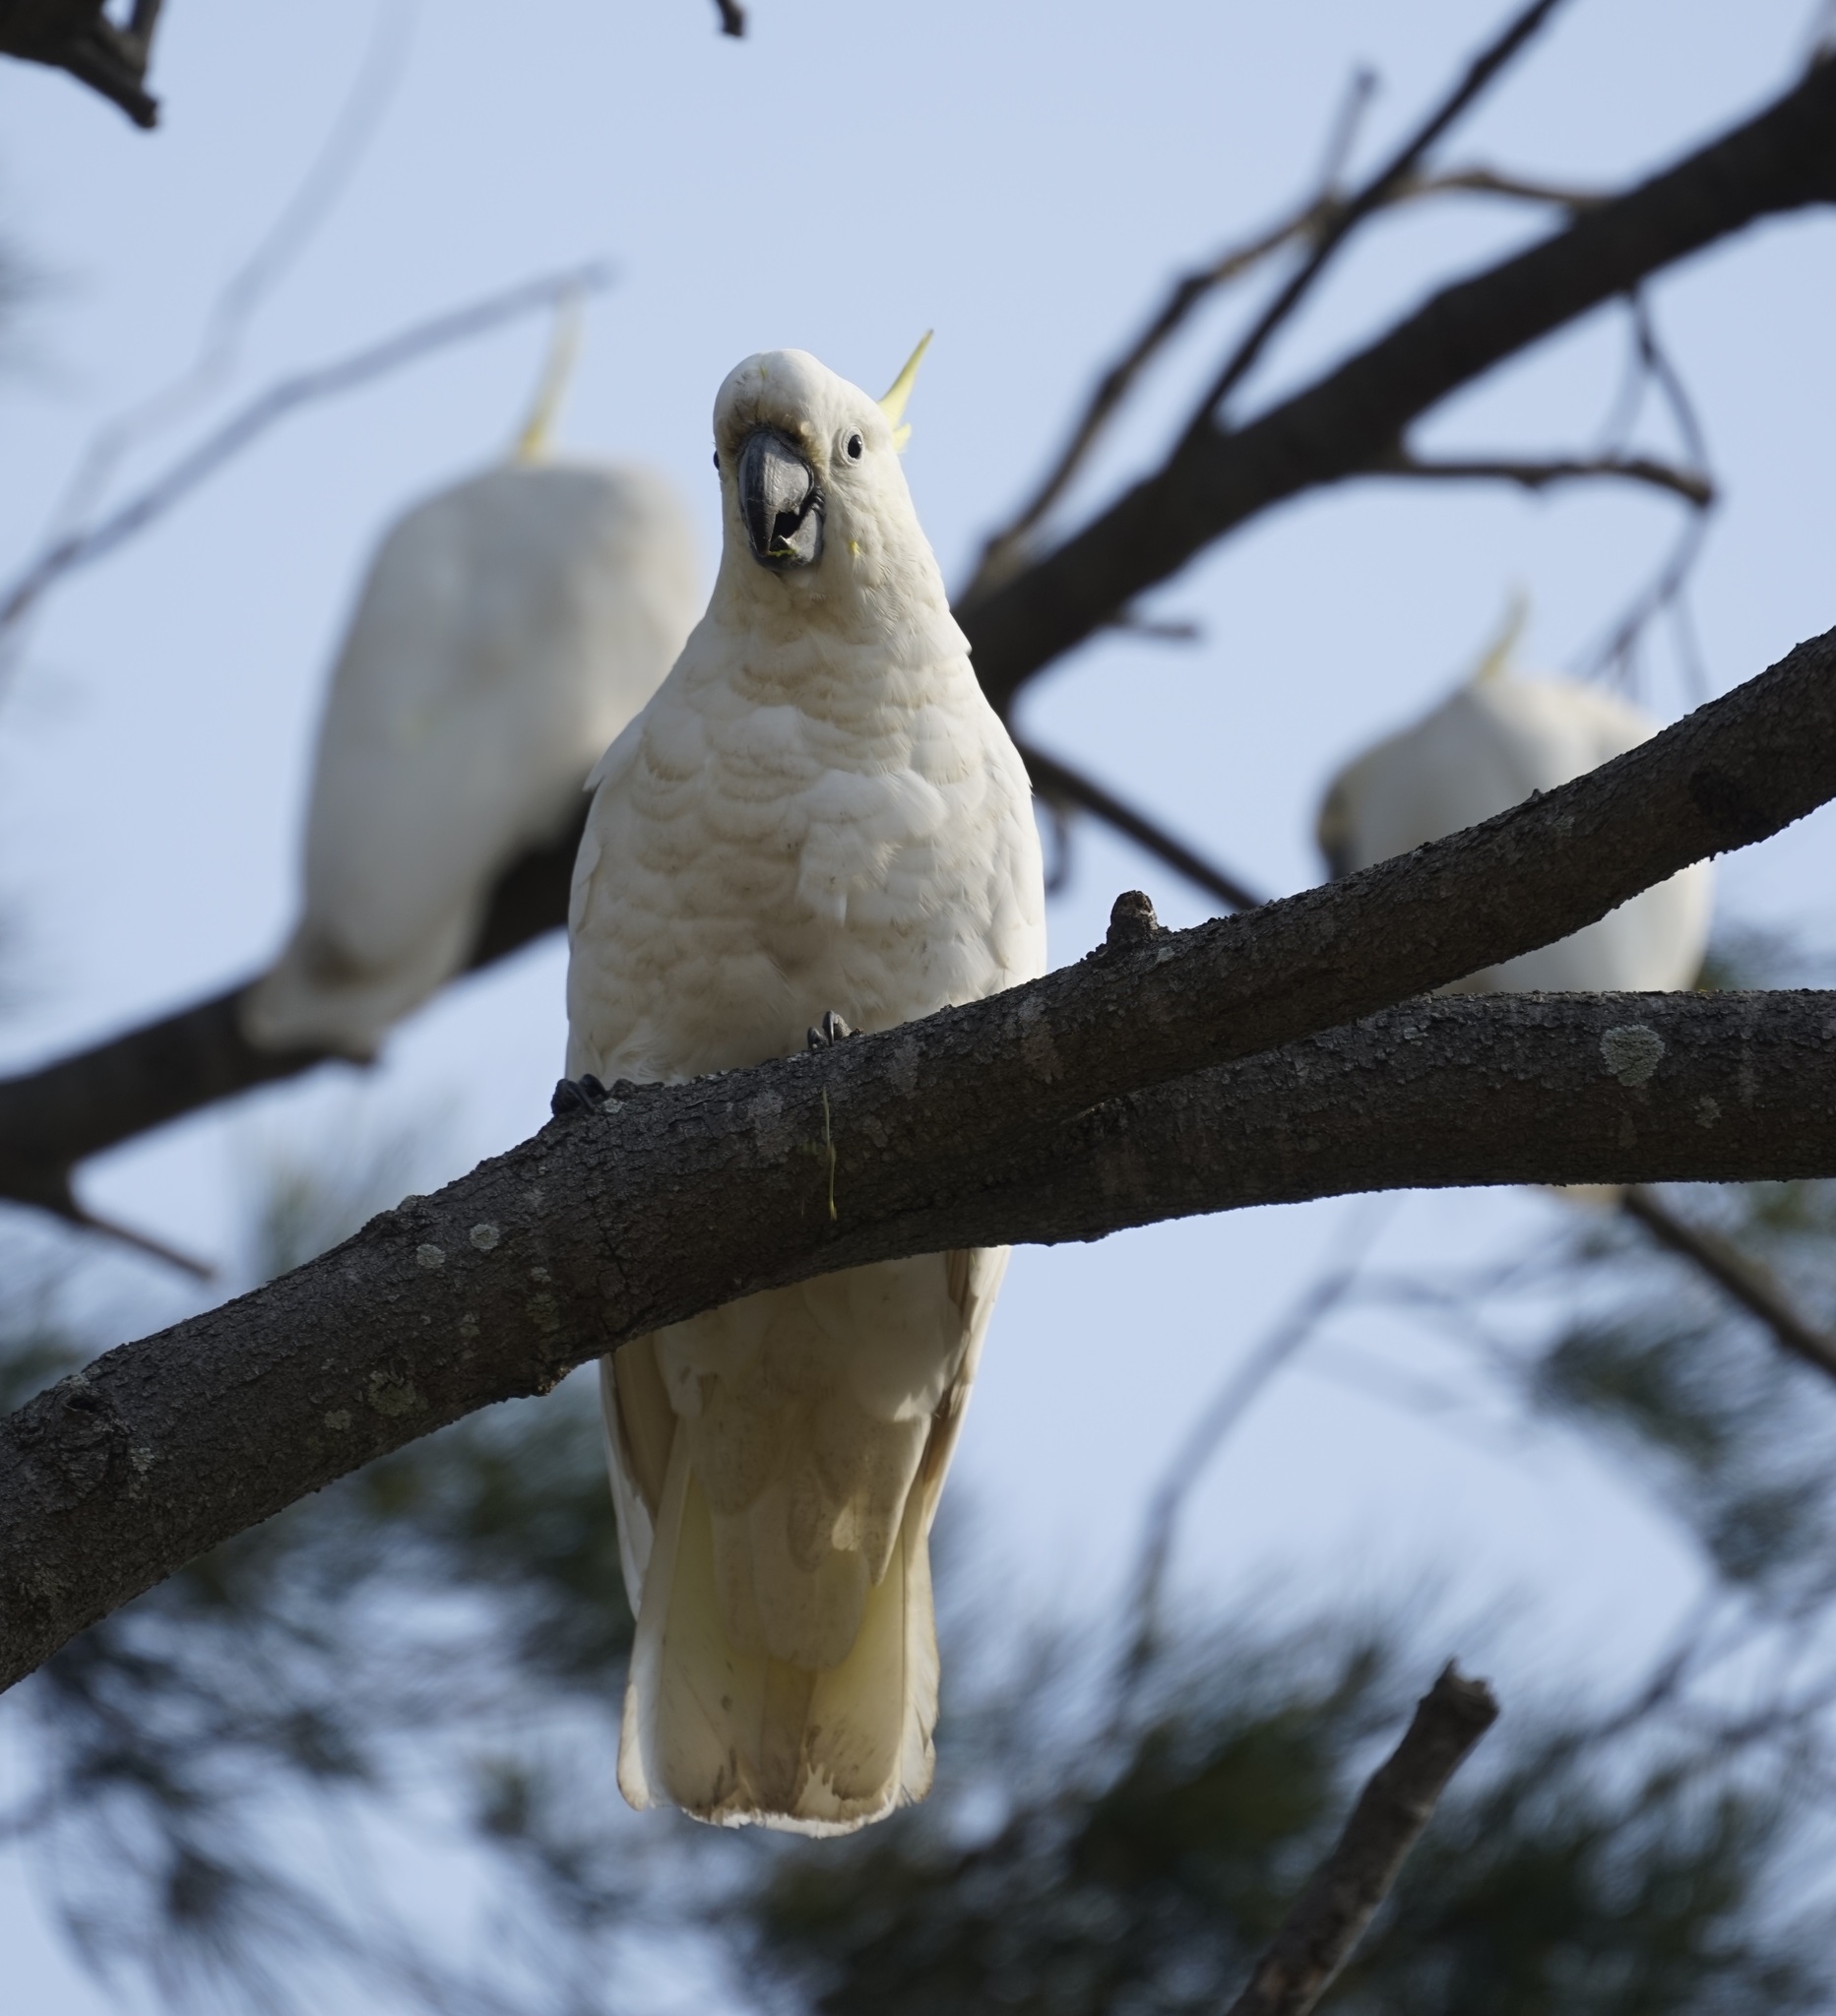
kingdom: Animalia
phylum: Chordata
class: Aves
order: Psittaciformes
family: Psittacidae
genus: Cacatua
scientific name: Cacatua galerita
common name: Sulphur-crested cockatoo
